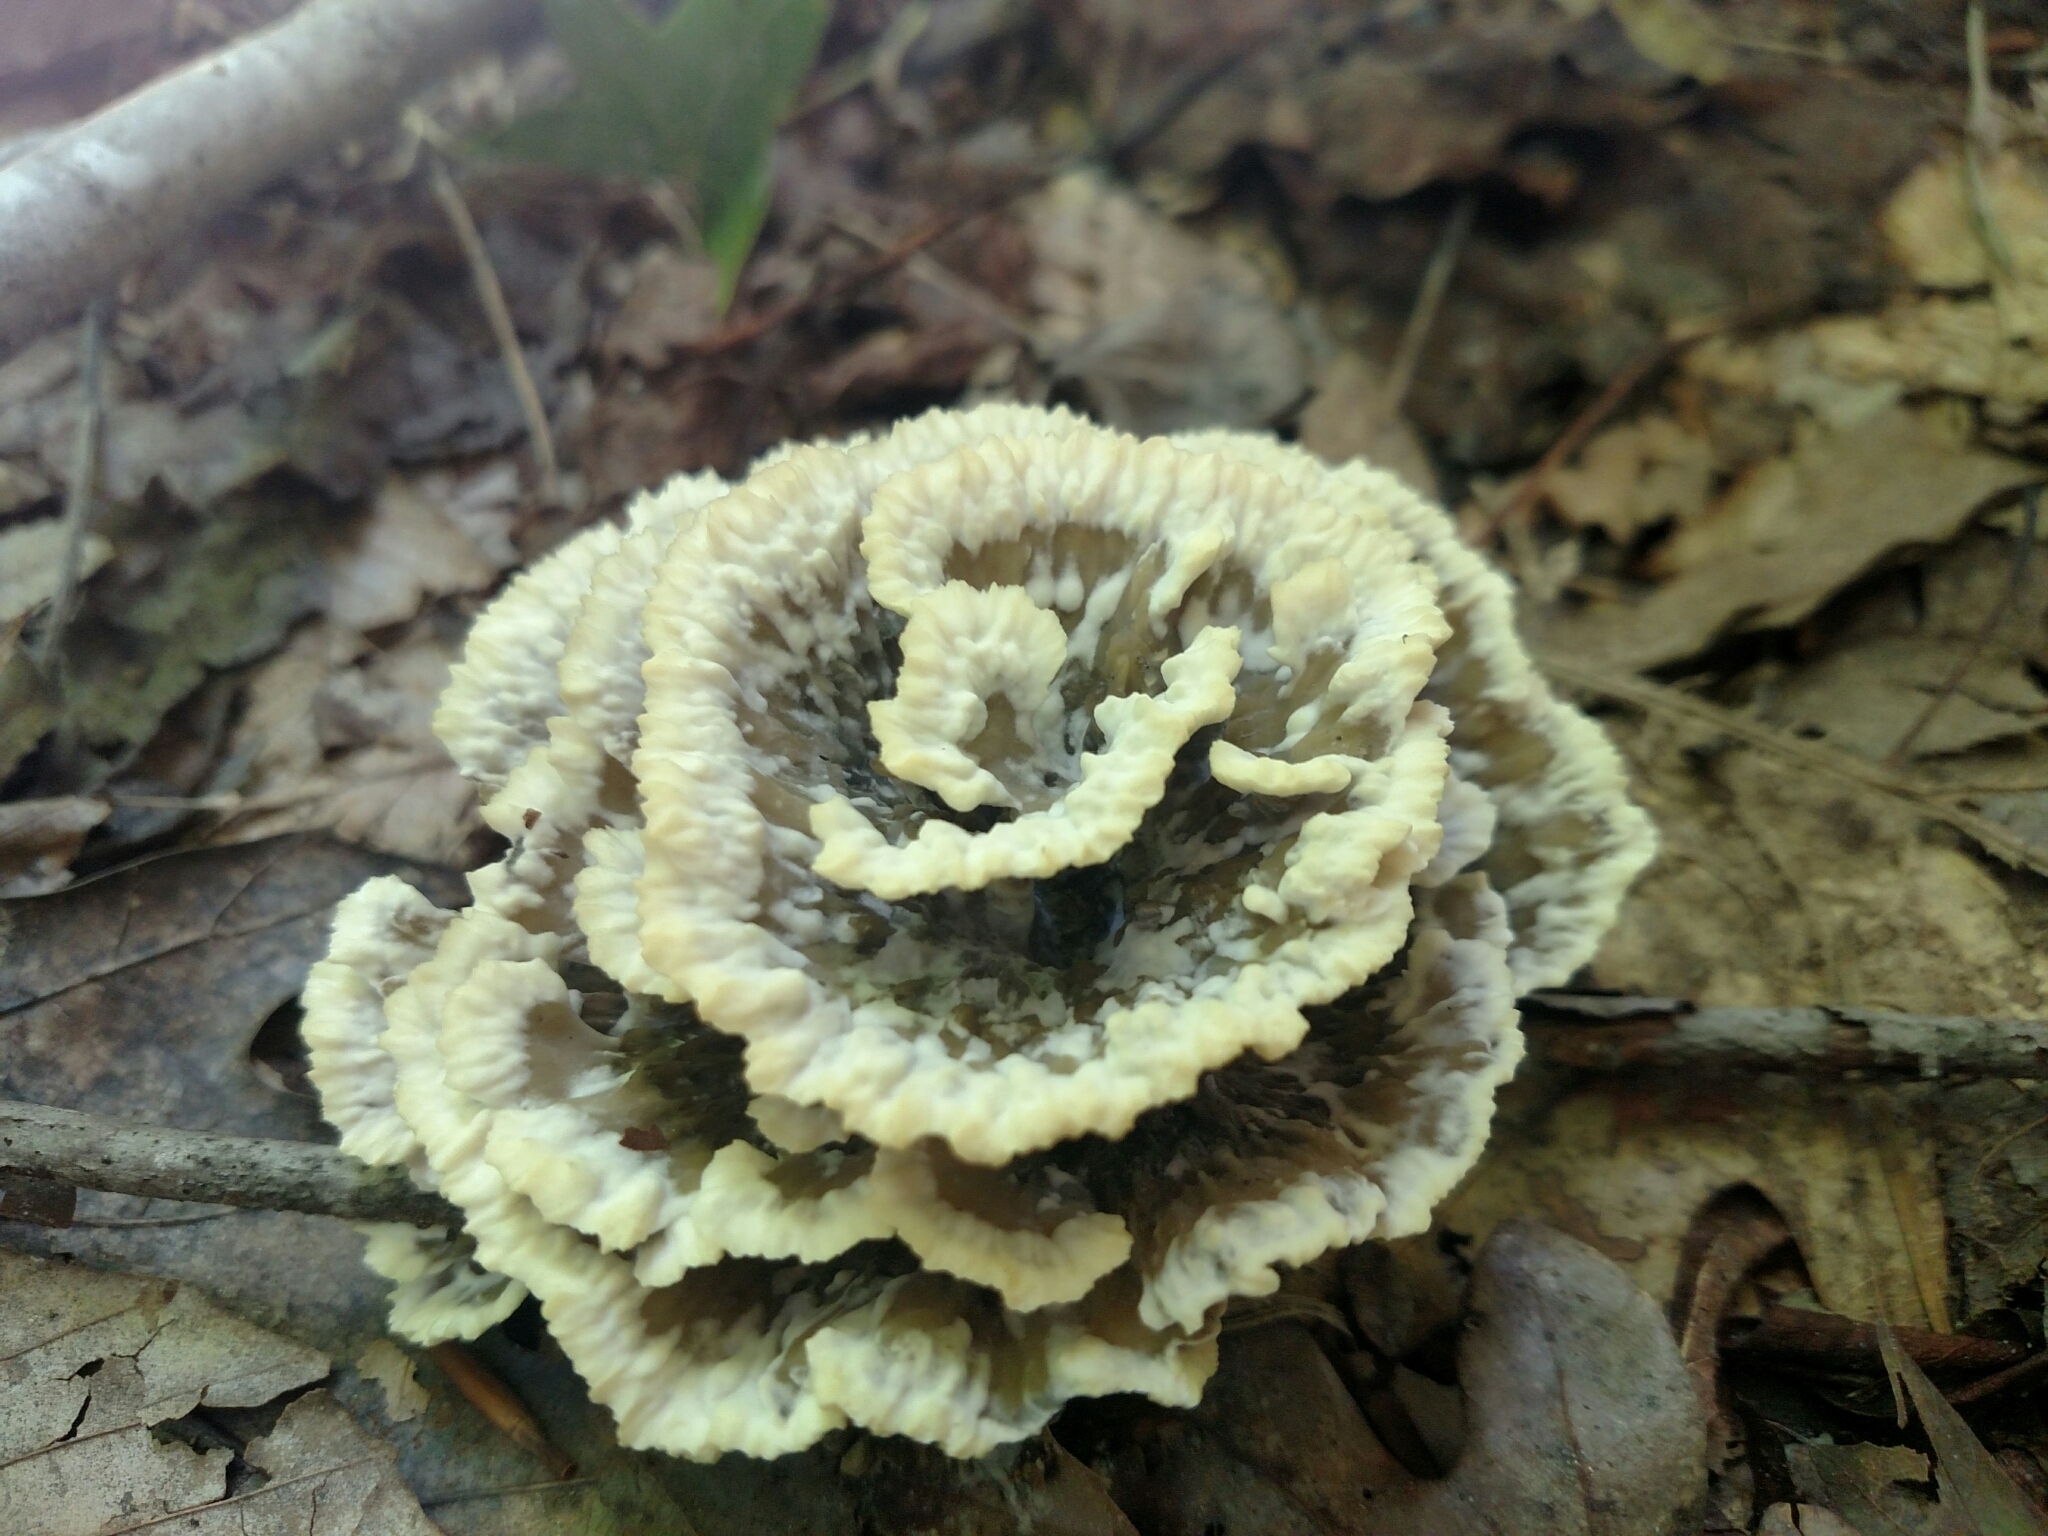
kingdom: Fungi
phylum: Basidiomycota
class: Agaricomycetes
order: Thelephorales
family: Thelephoraceae
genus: Thelephora
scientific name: Thelephora vialis
